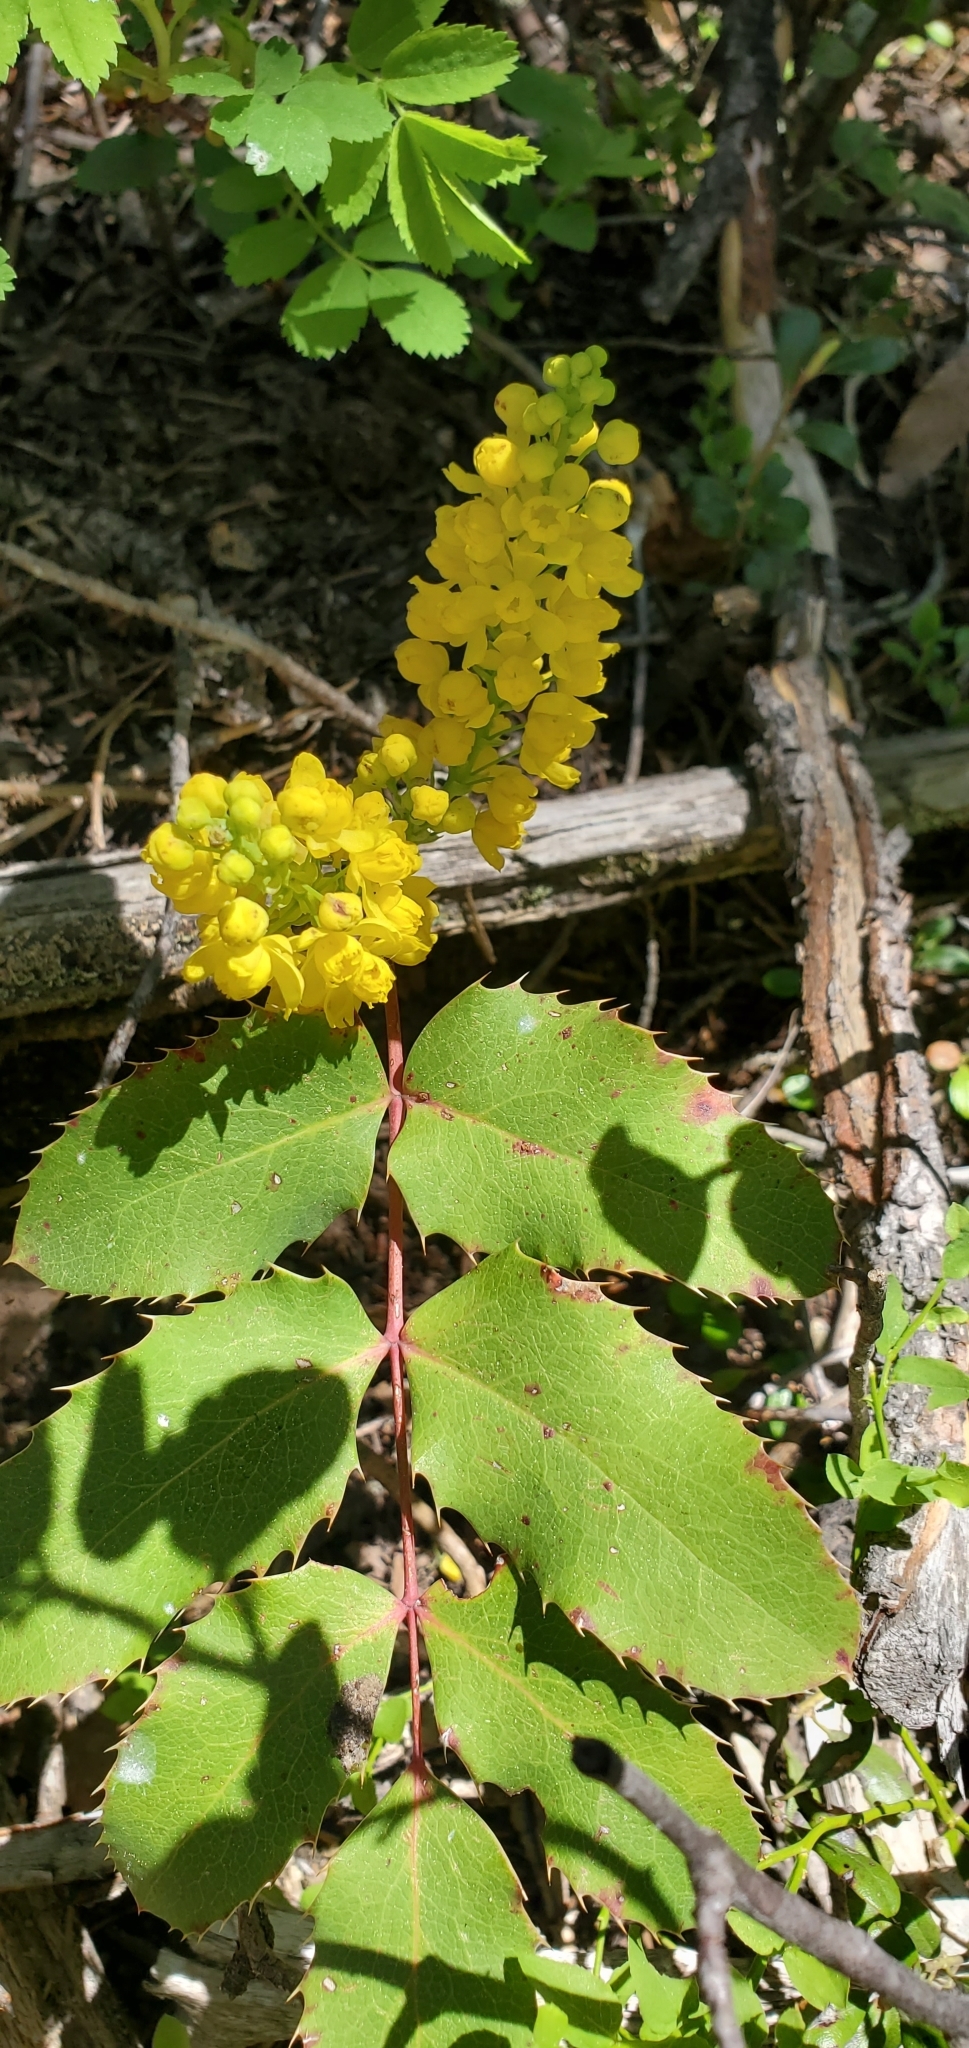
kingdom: Plantae
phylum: Tracheophyta
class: Magnoliopsida
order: Ranunculales
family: Berberidaceae
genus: Mahonia
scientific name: Mahonia repens
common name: Creeping oregon-grape
